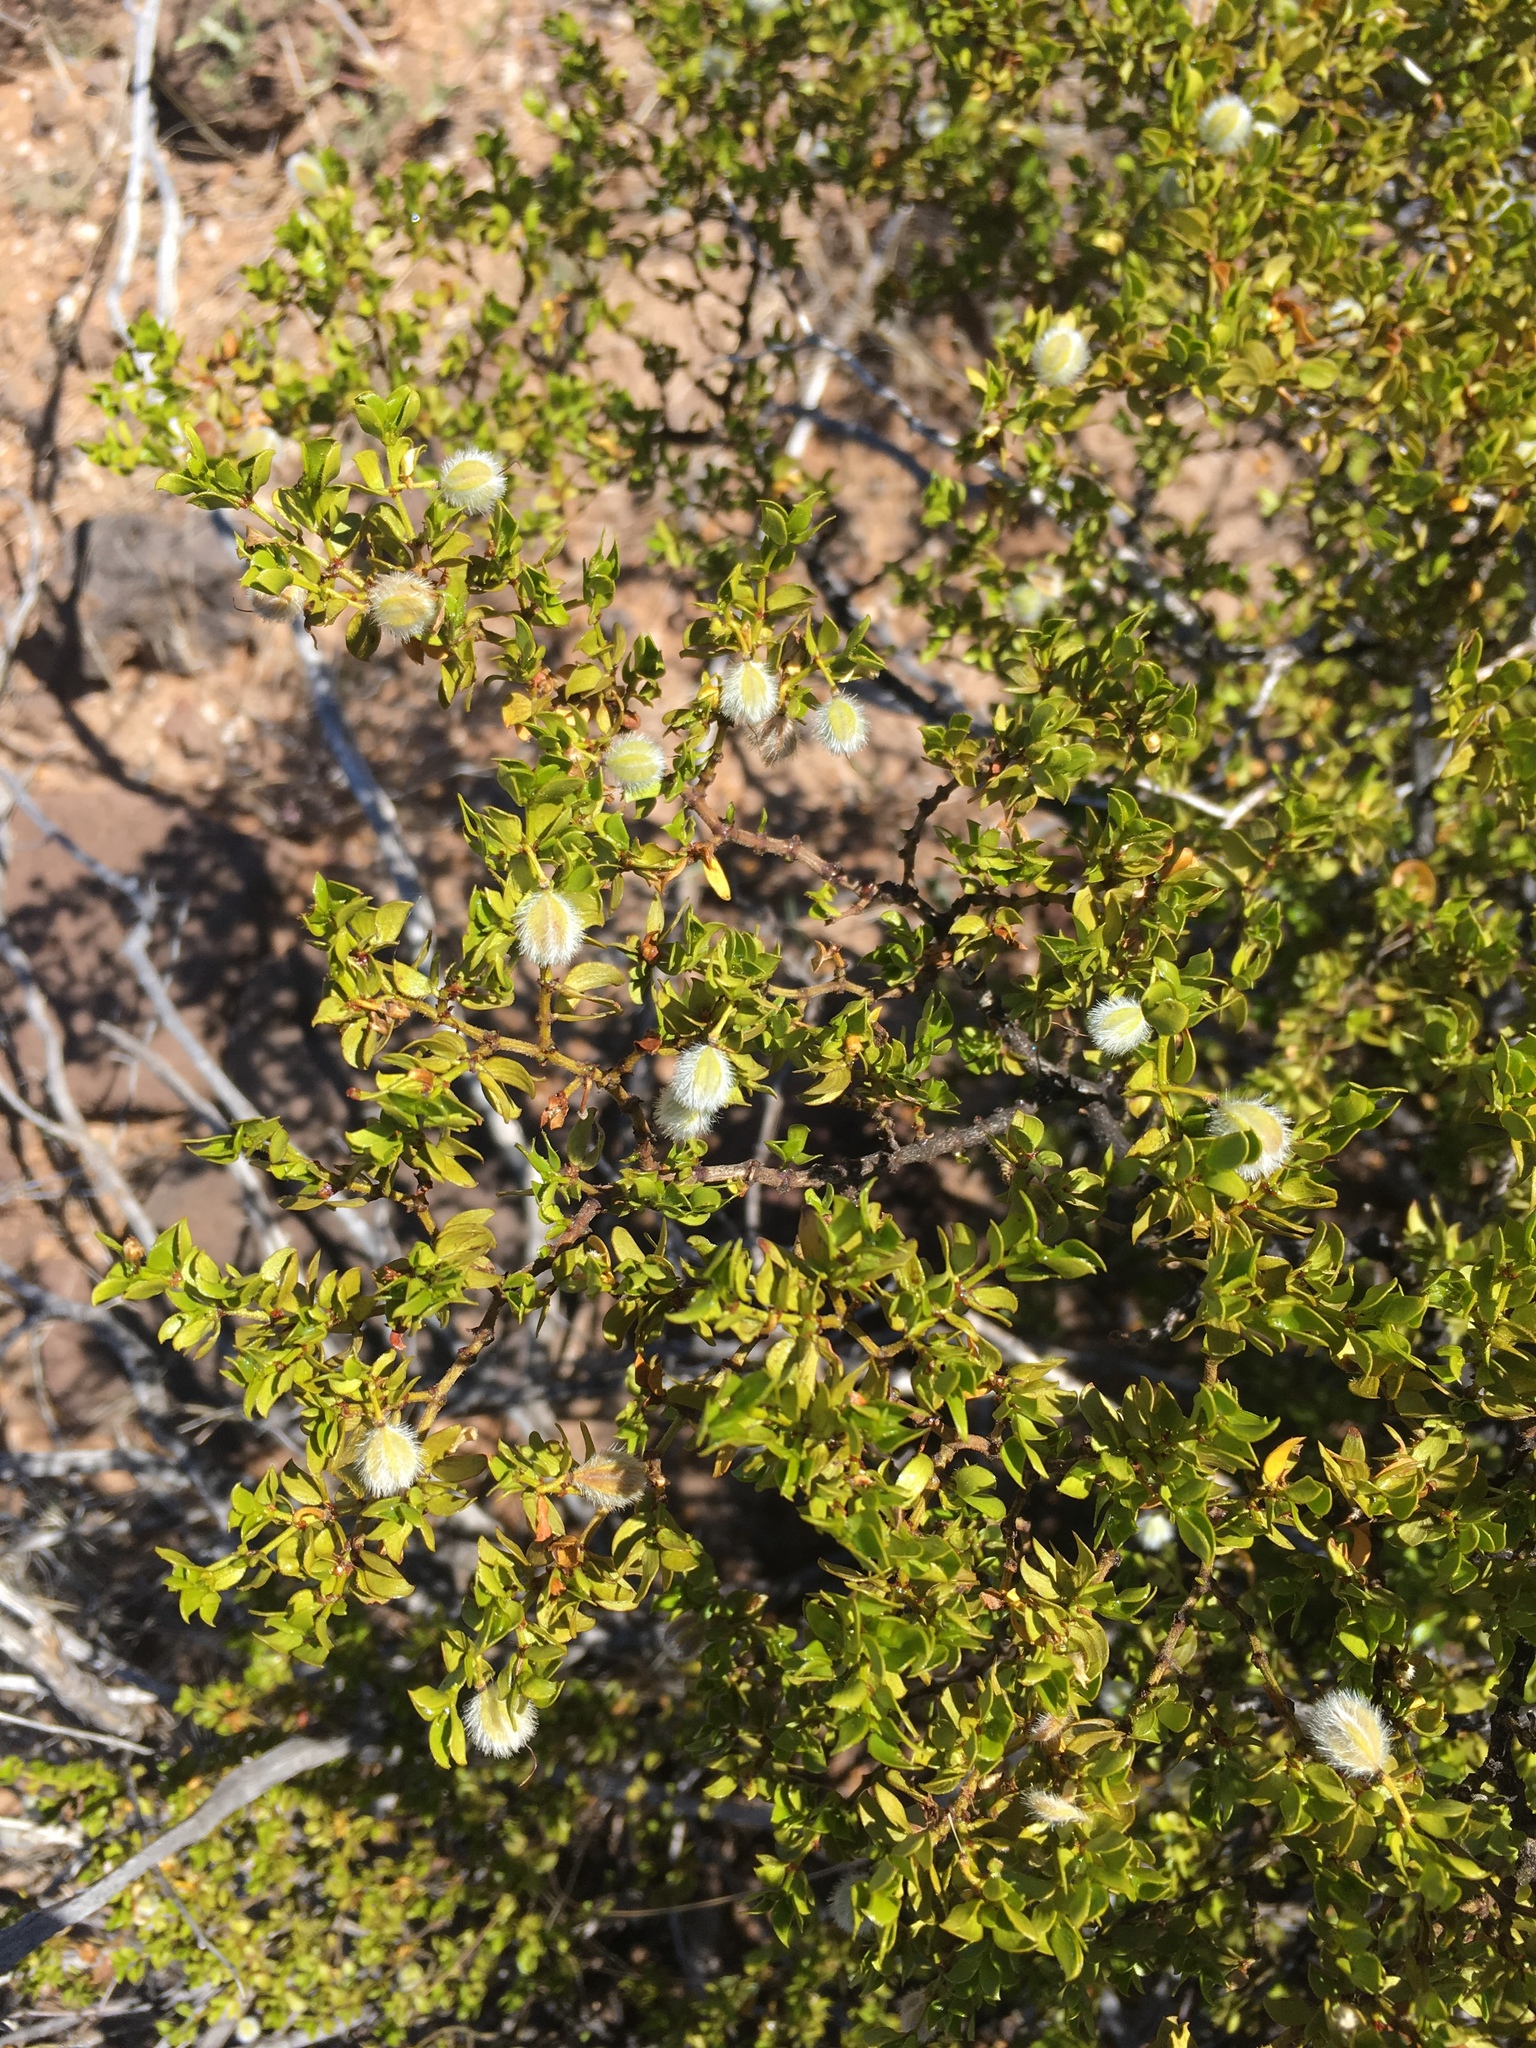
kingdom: Plantae
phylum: Tracheophyta
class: Magnoliopsida
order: Zygophyllales
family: Zygophyllaceae
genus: Larrea
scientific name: Larrea tridentata
